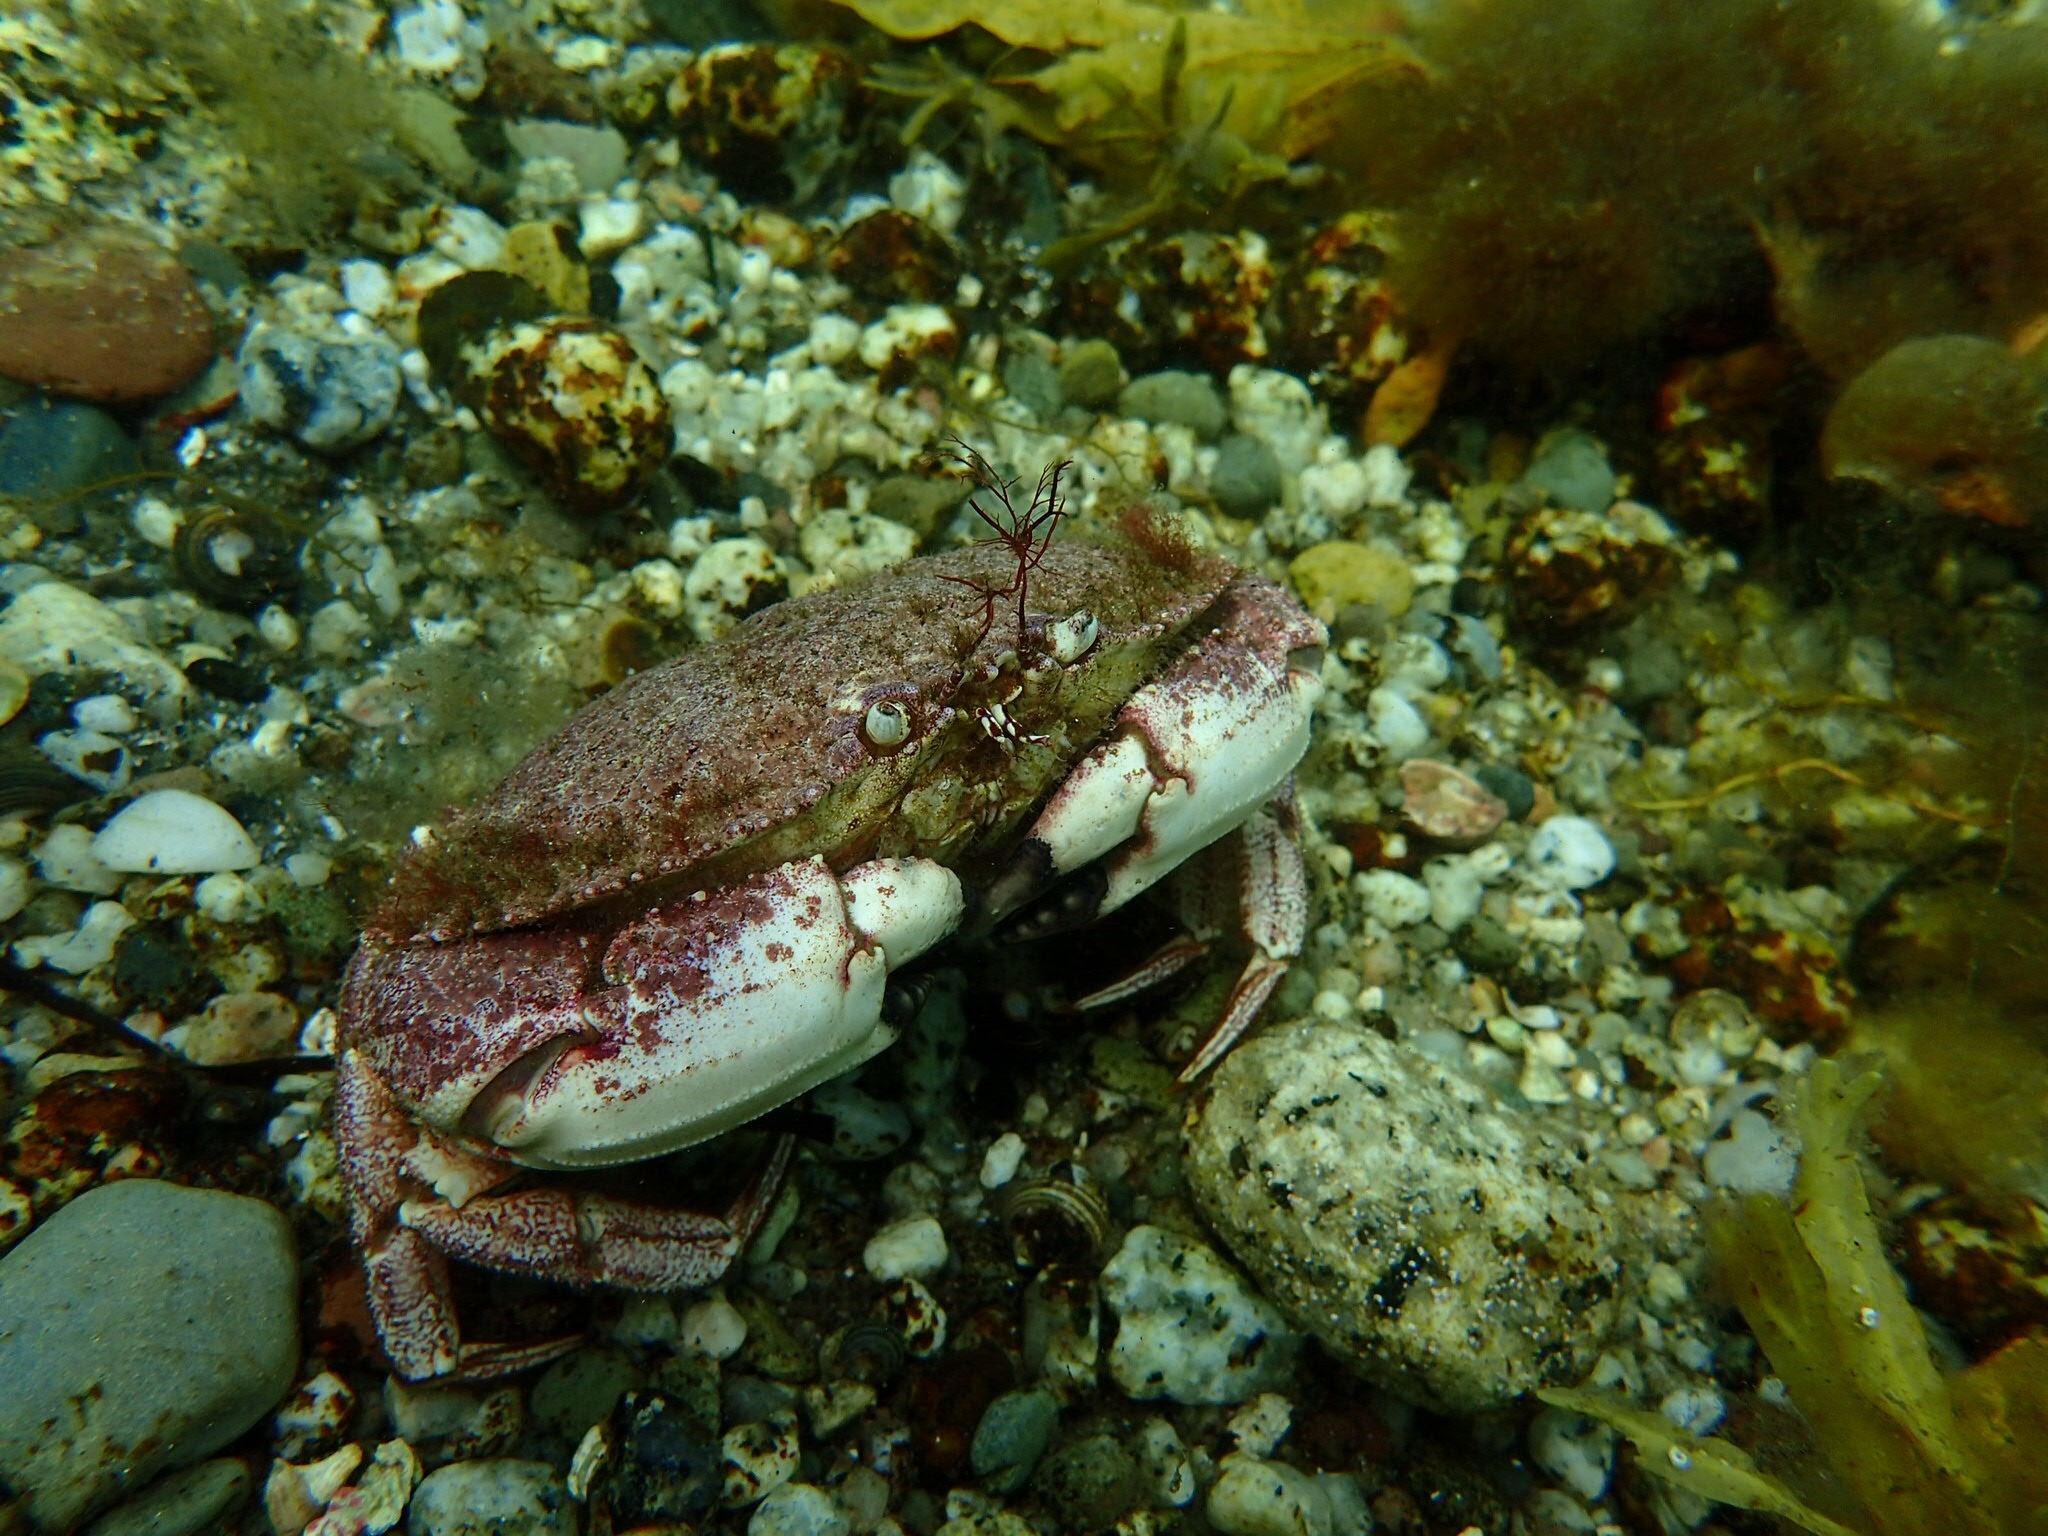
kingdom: Animalia
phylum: Arthropoda
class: Malacostraca
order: Decapoda
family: Cancridae
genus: Cancer
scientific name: Cancer borealis
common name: Jonah crab
